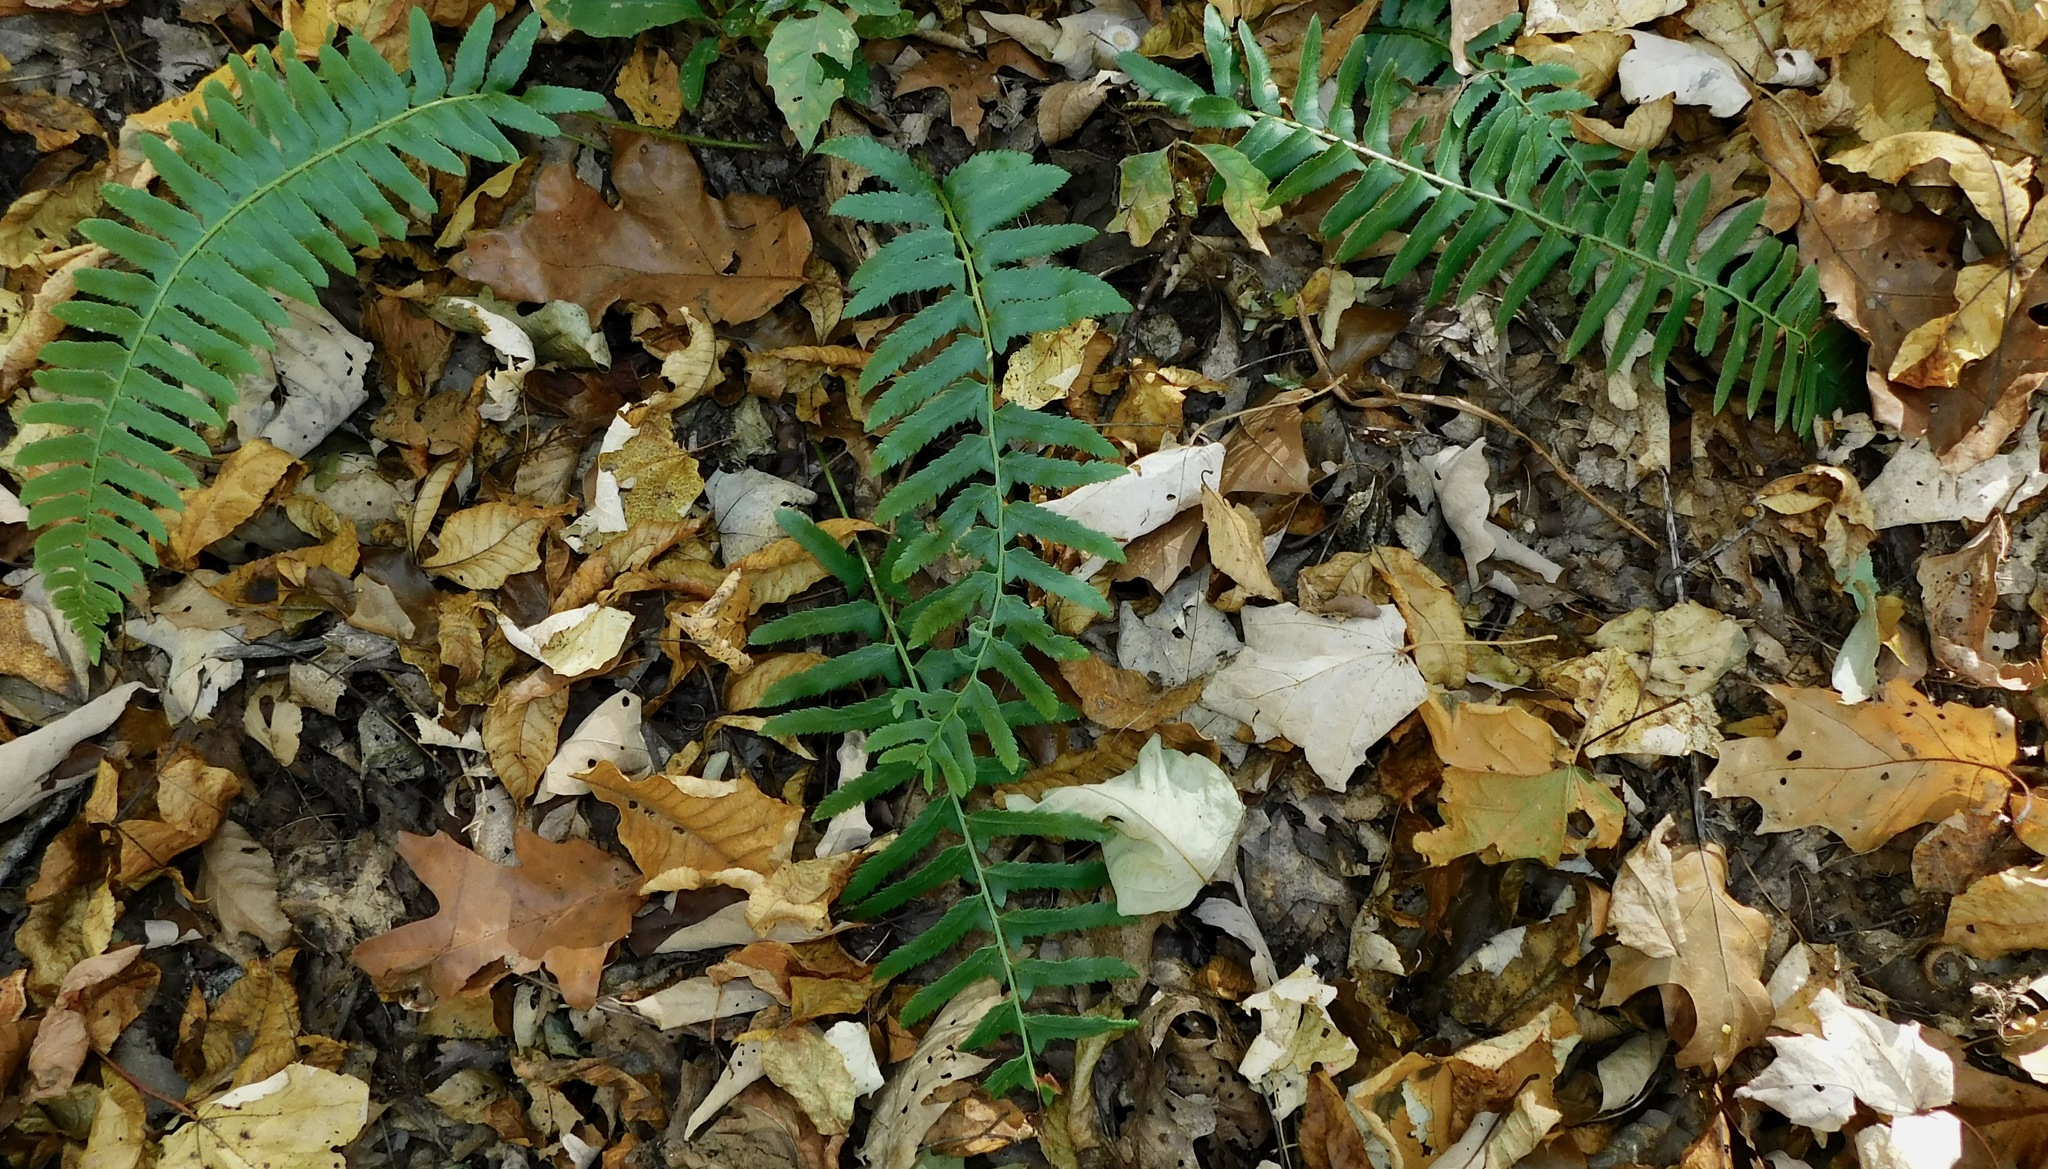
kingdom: Plantae
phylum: Tracheophyta
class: Polypodiopsida
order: Polypodiales
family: Dryopteridaceae
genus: Polystichum
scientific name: Polystichum acrostichoides
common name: Christmas fern
